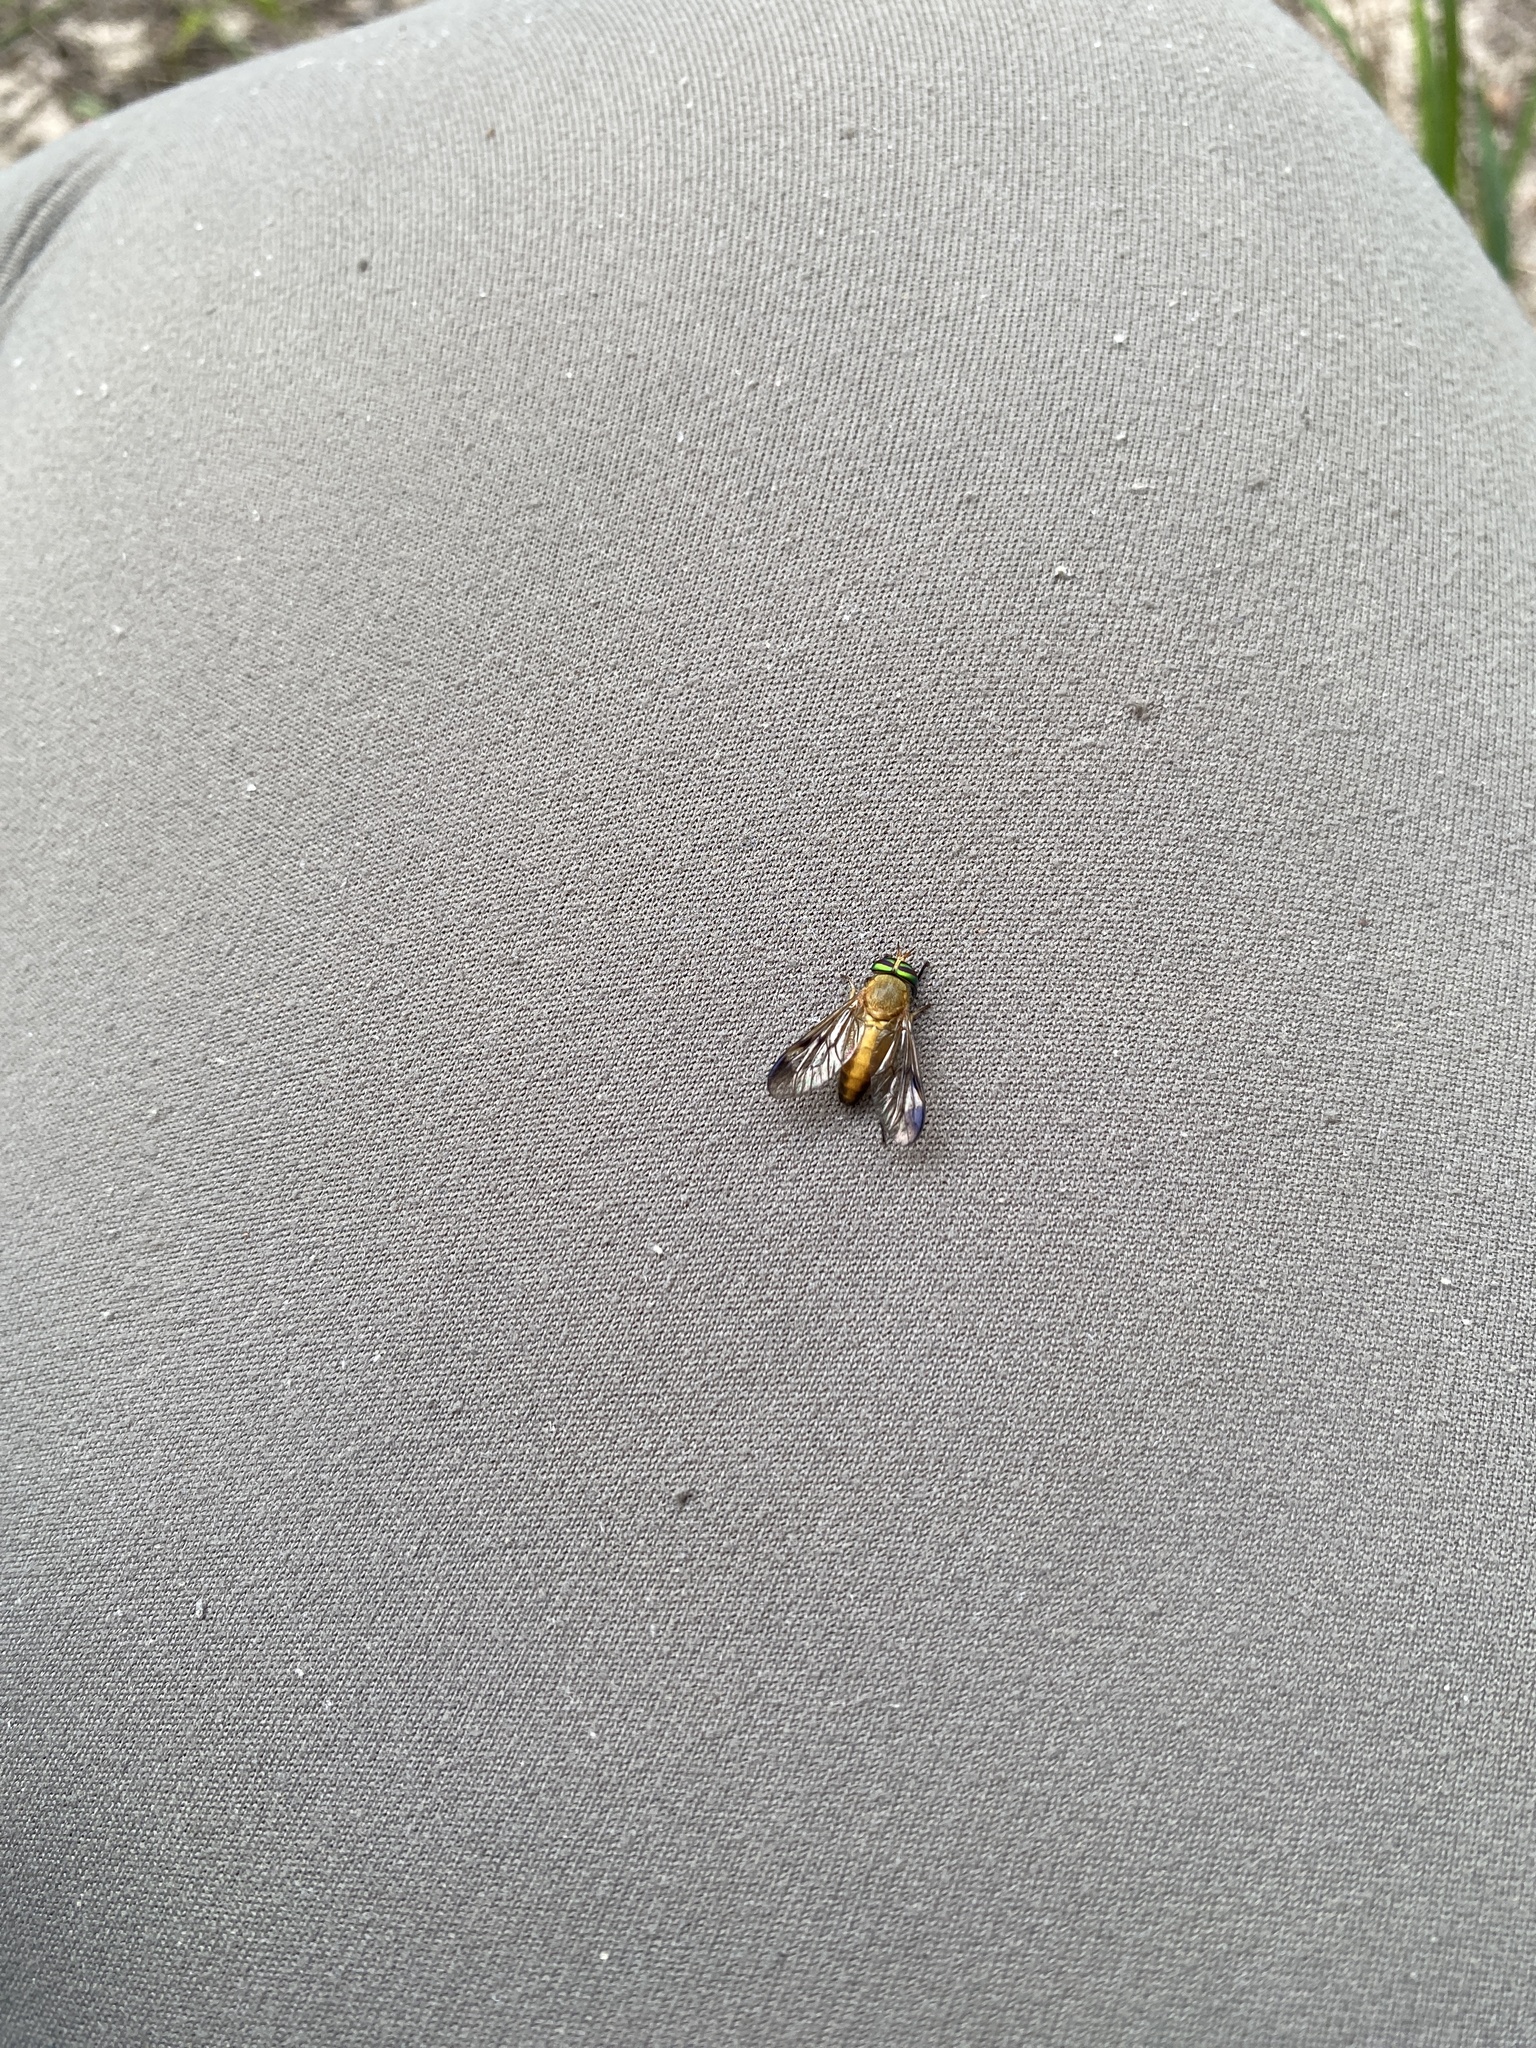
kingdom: Animalia
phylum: Arthropoda
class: Insecta
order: Diptera
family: Tabanidae
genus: Diachlorus
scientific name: Diachlorus ferrugatus
